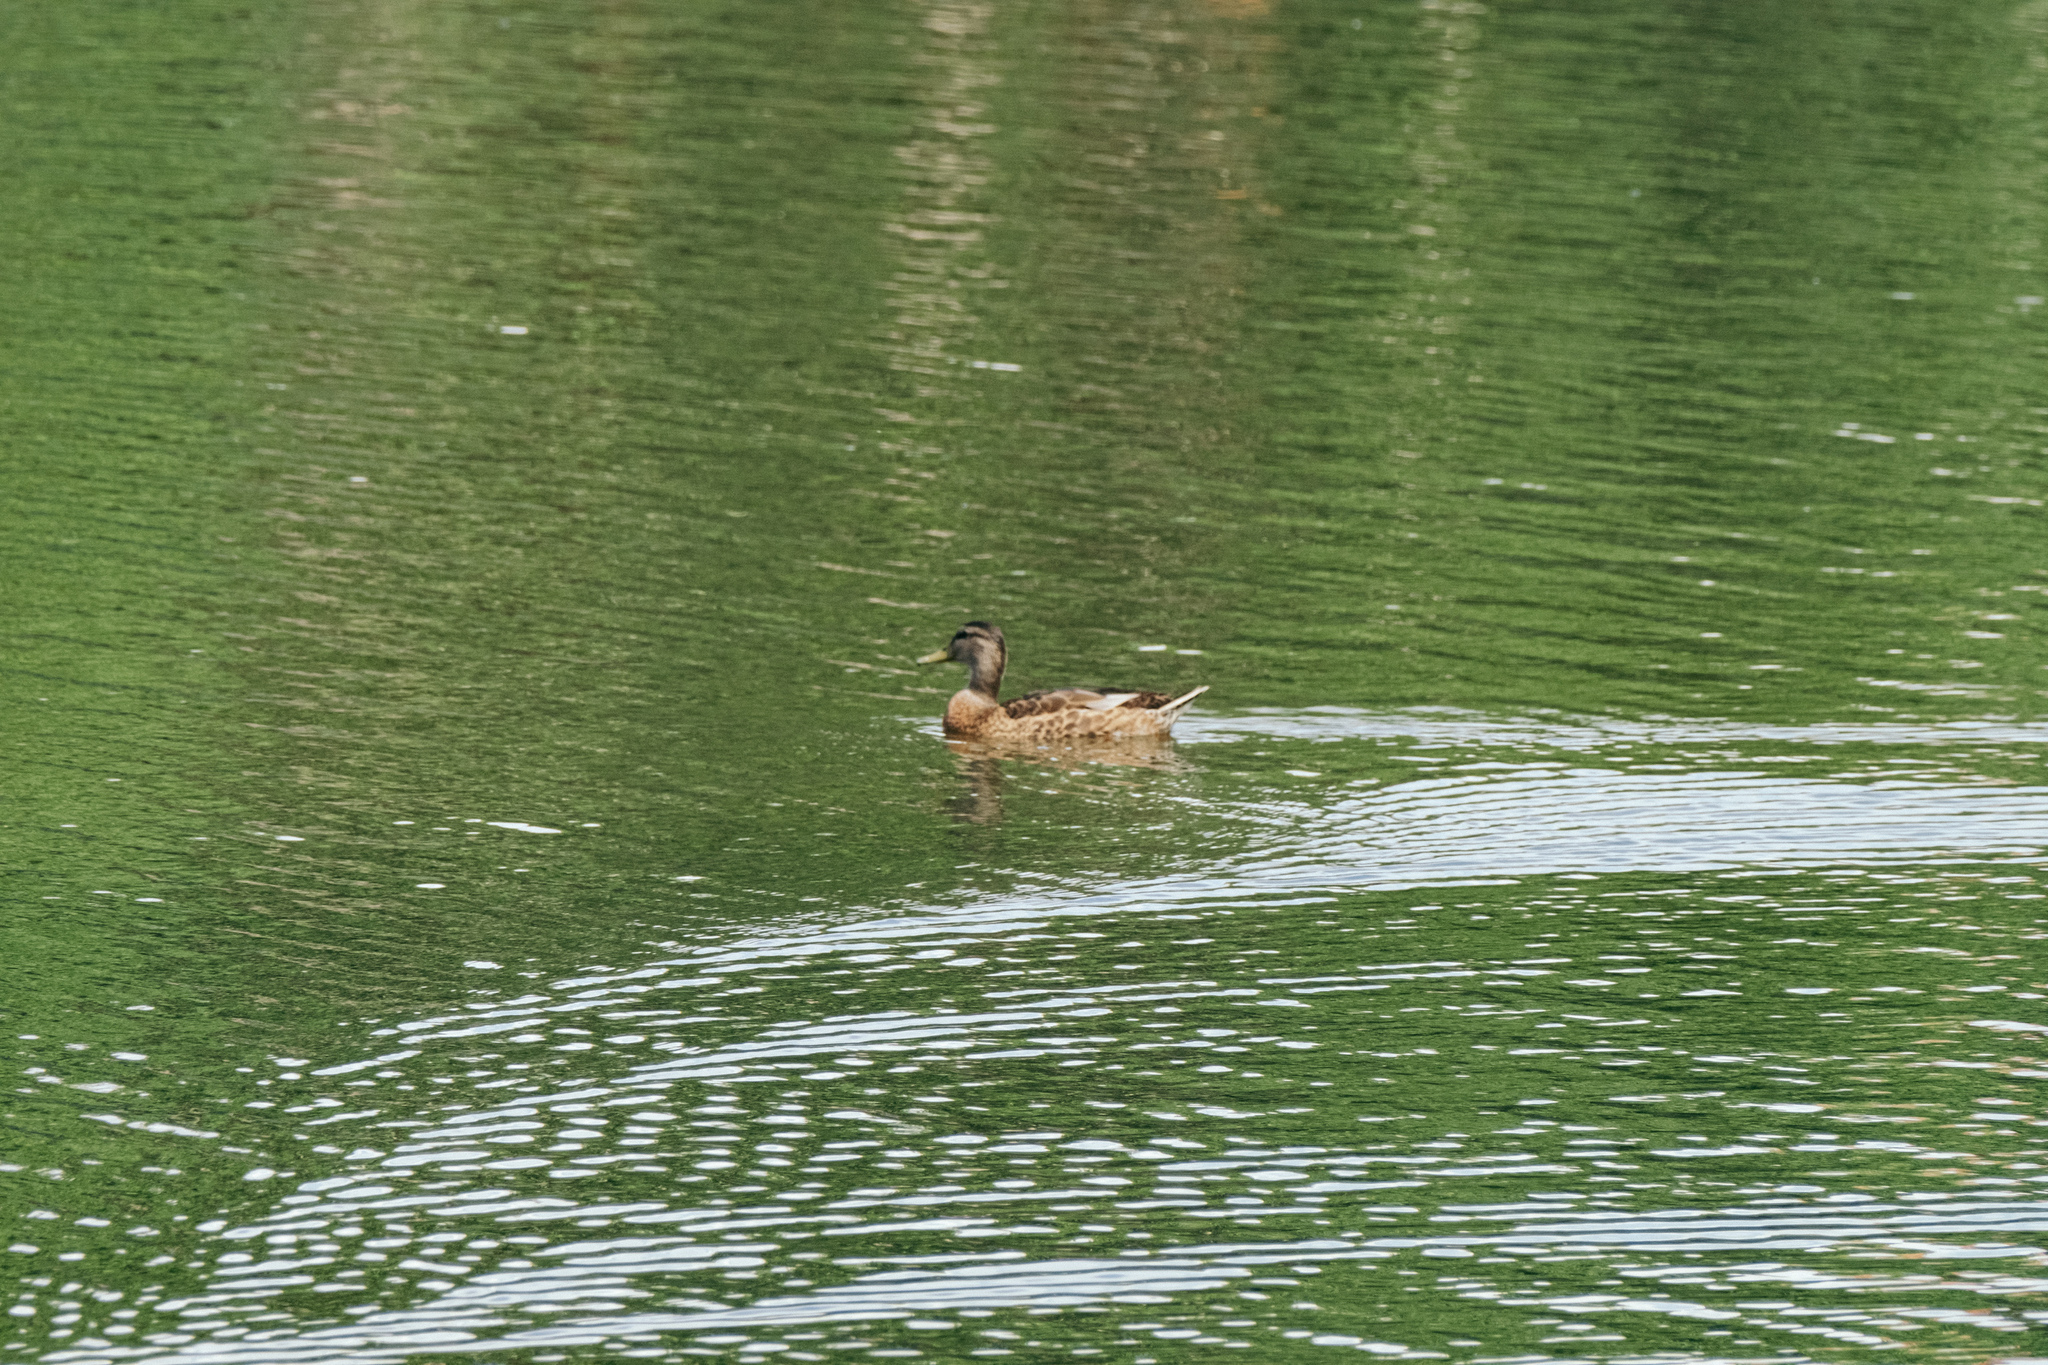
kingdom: Animalia
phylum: Chordata
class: Aves
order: Anseriformes
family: Anatidae
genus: Anas
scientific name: Anas platyrhynchos
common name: Mallard
